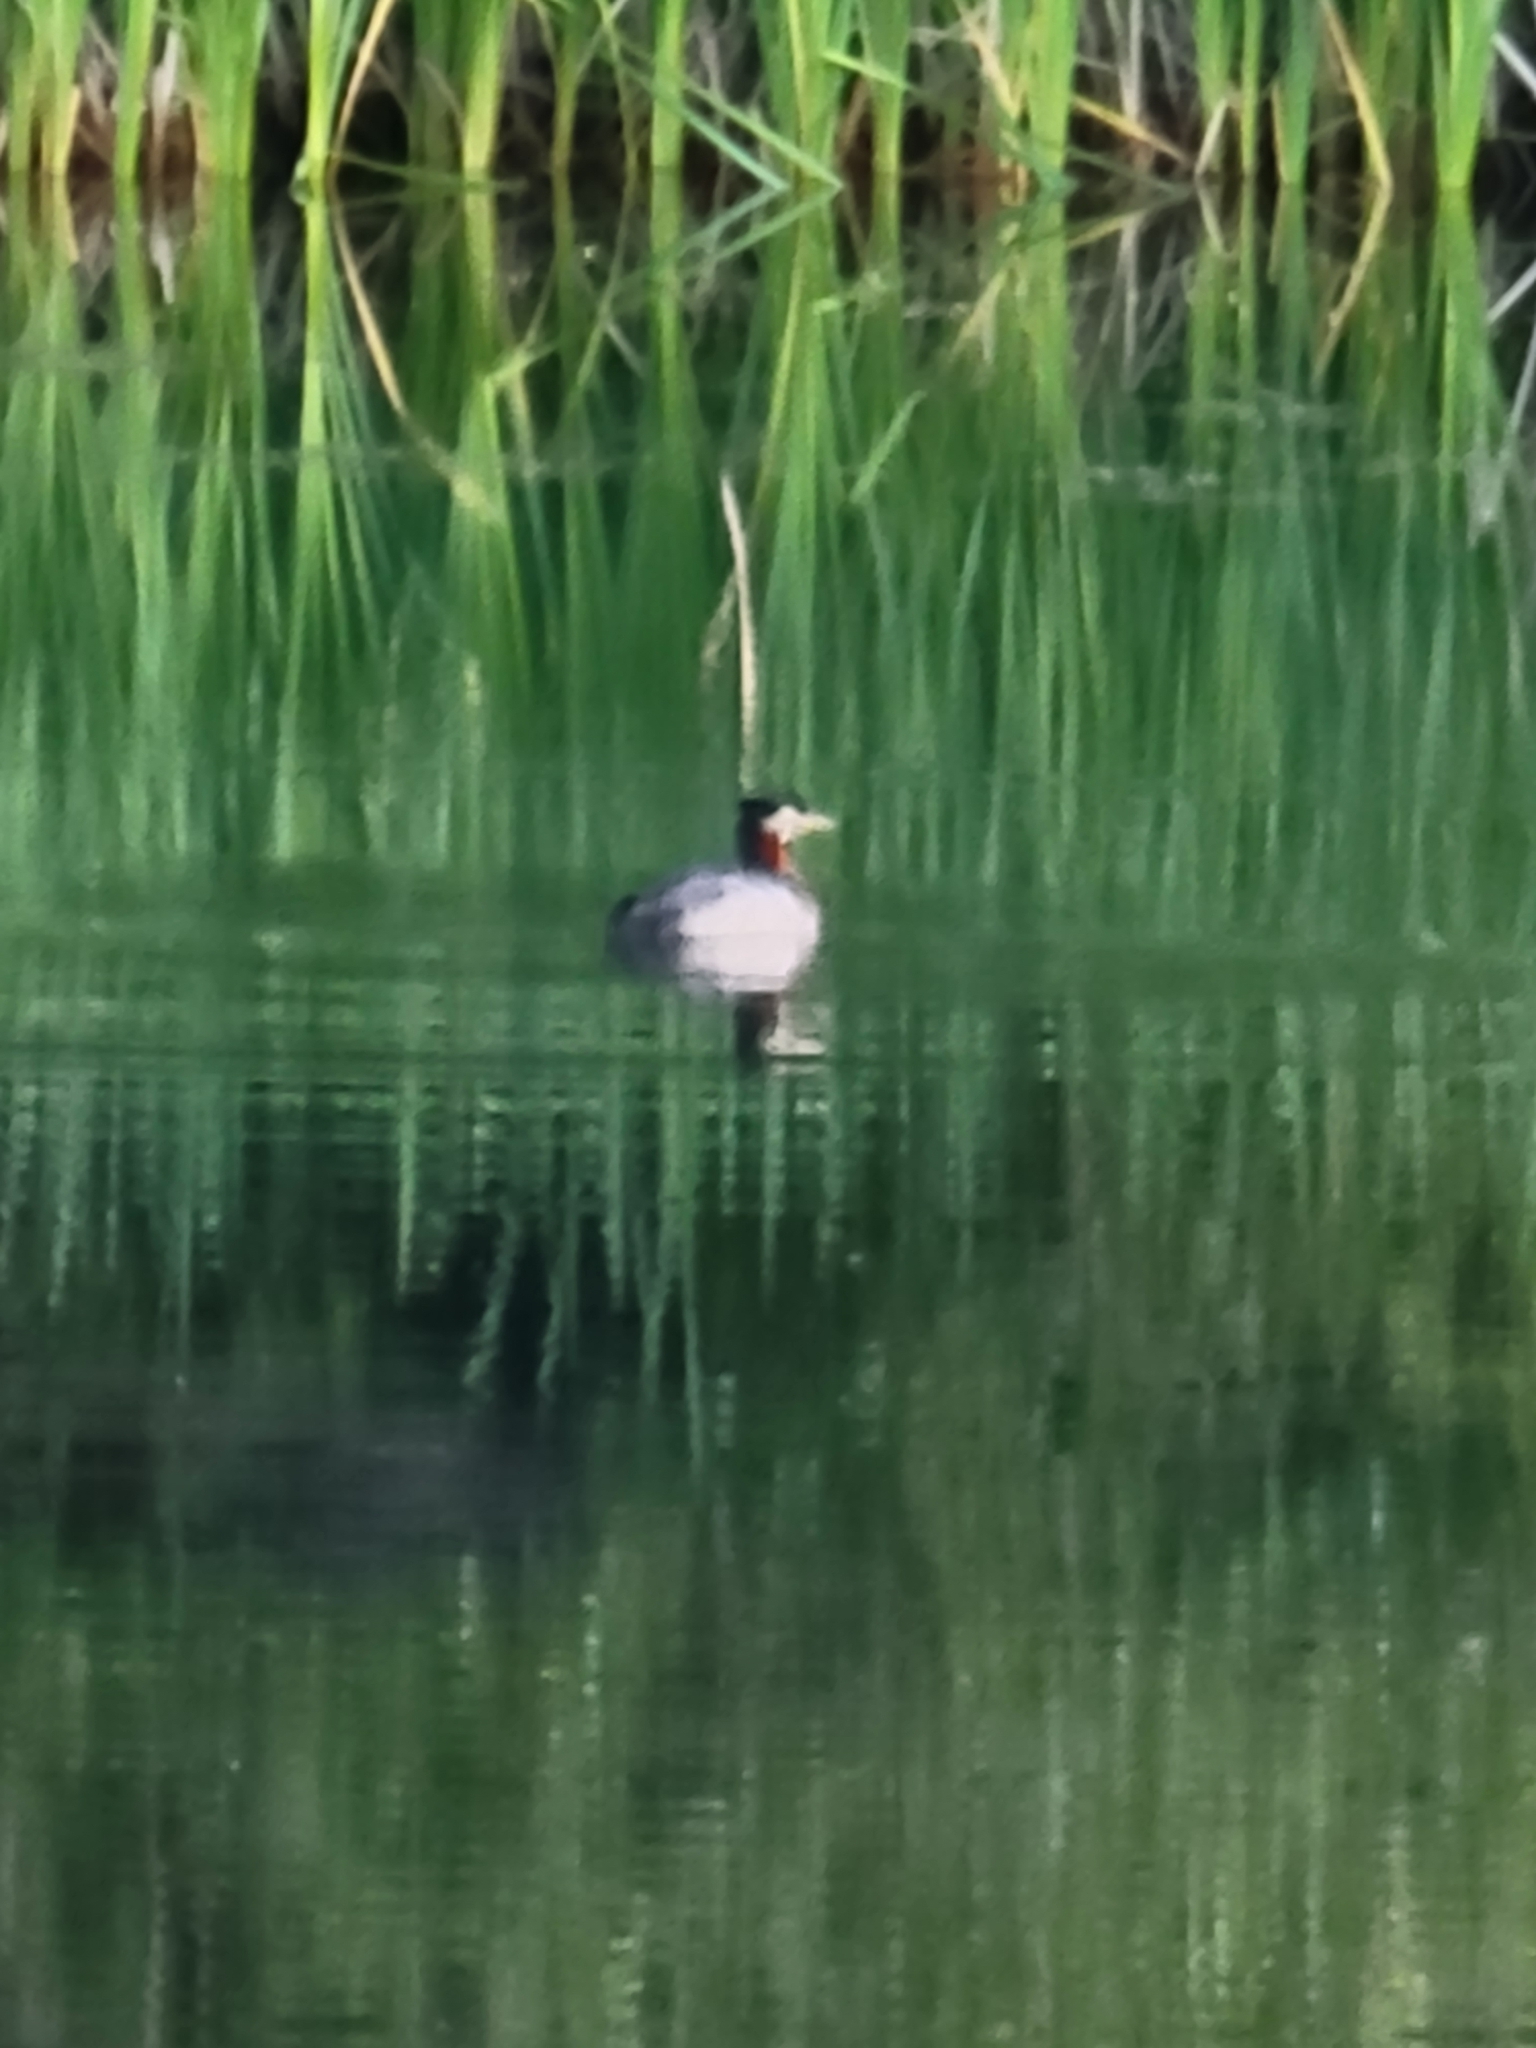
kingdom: Animalia
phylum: Chordata
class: Aves
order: Podicipediformes
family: Podicipedidae
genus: Podiceps
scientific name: Podiceps grisegena
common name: Red-necked grebe
